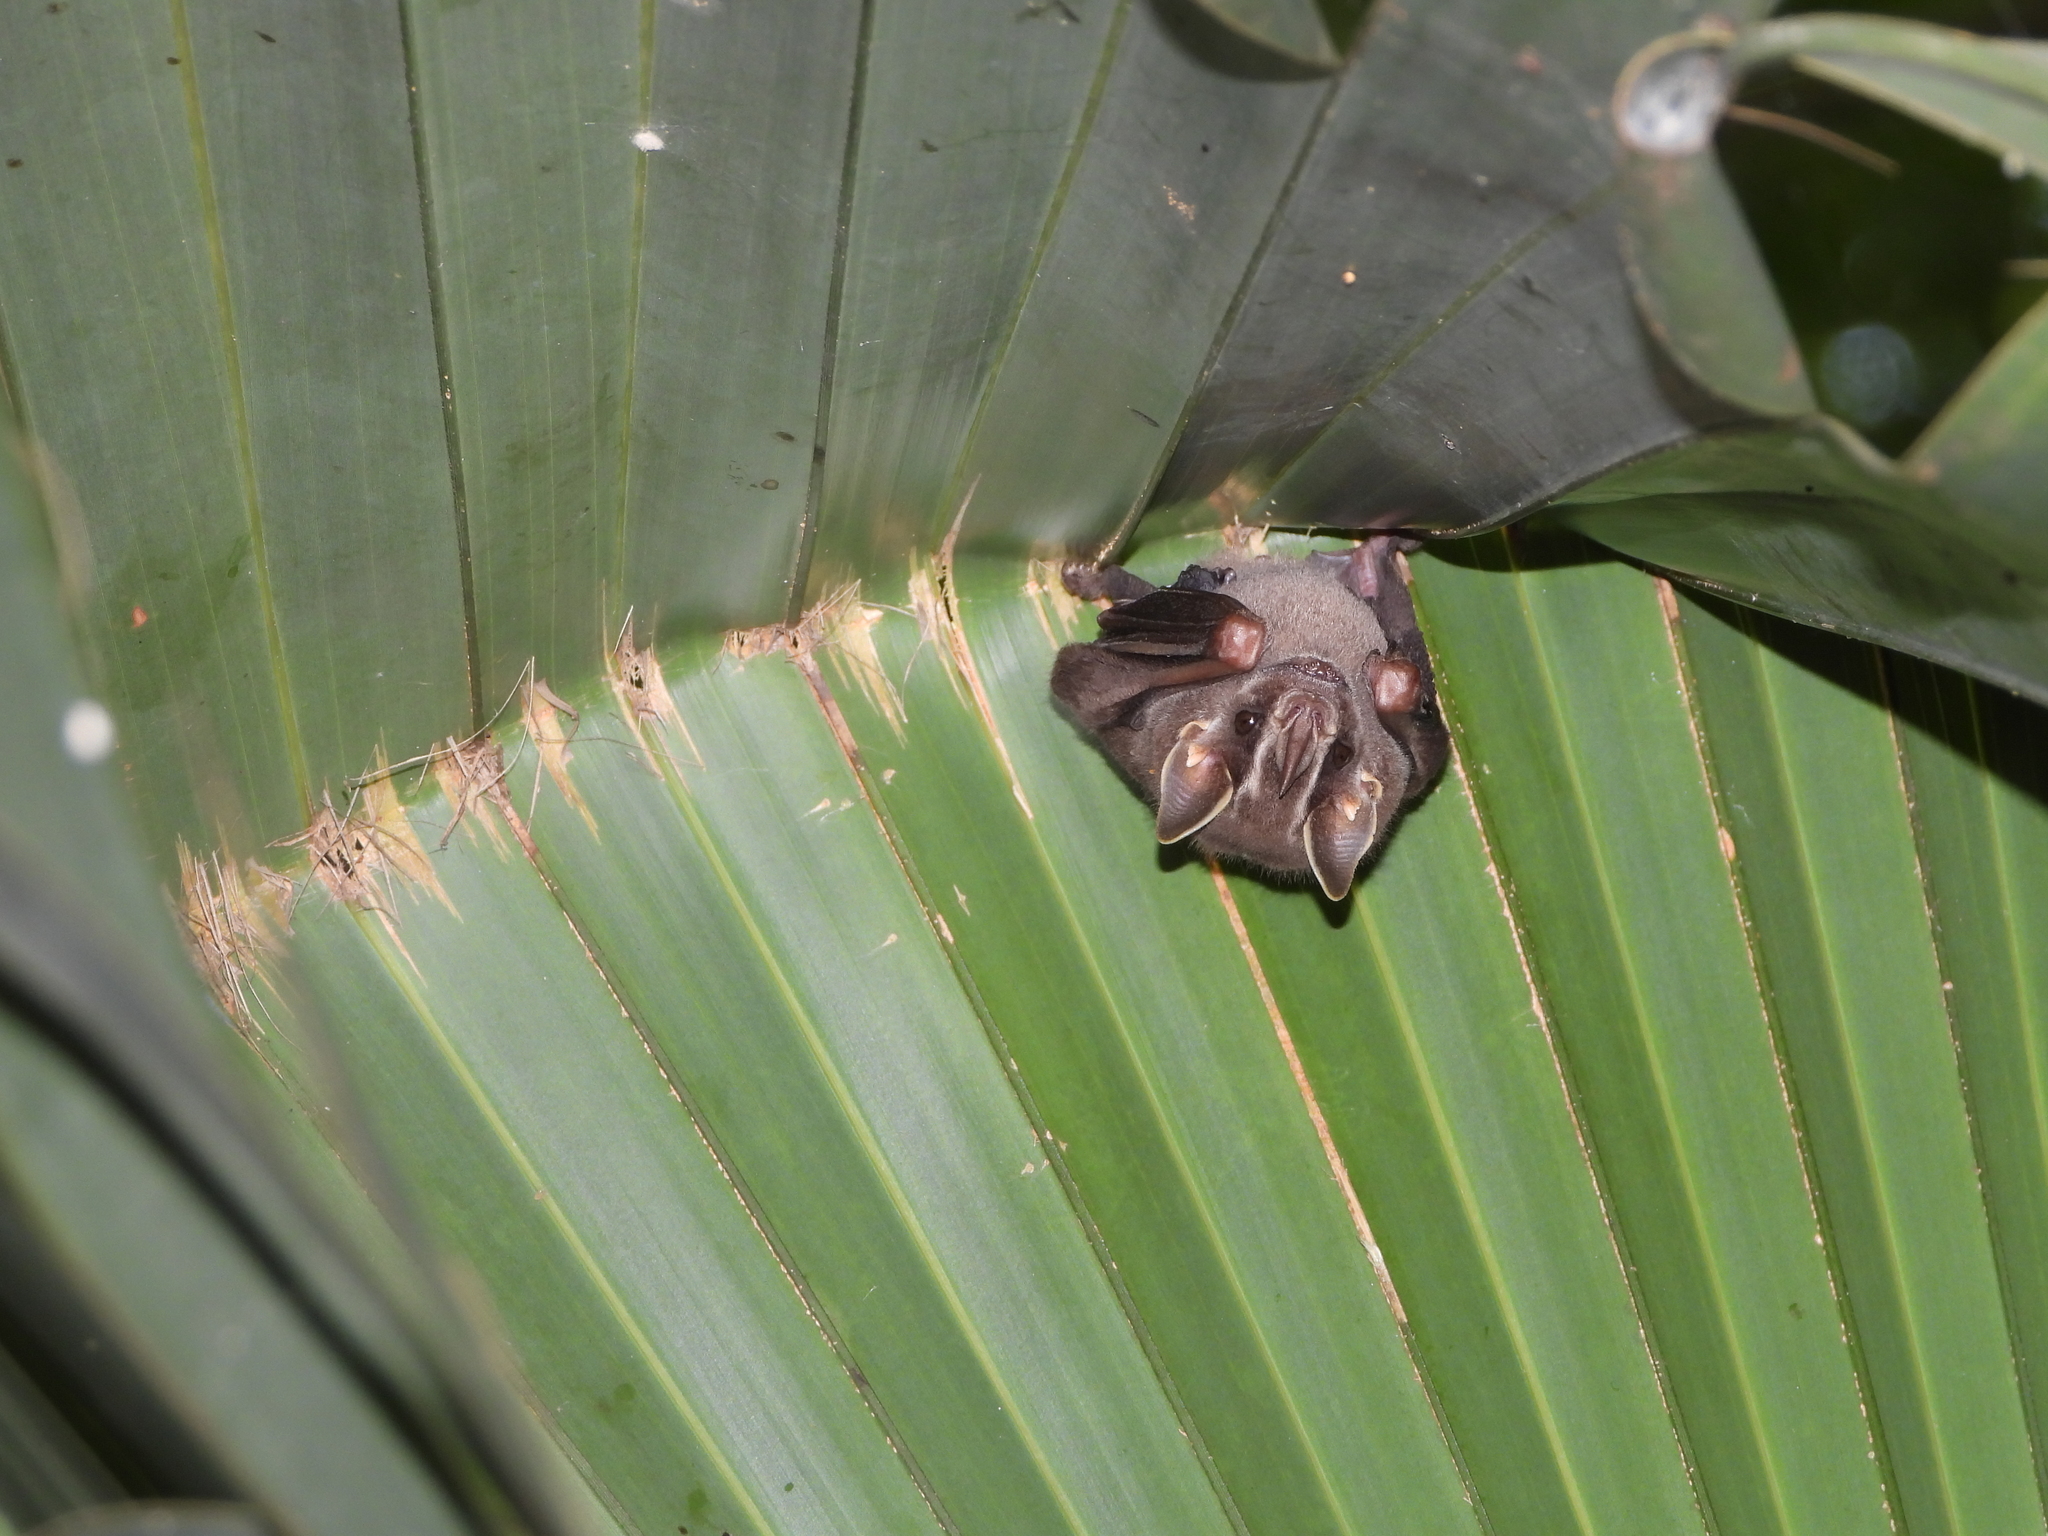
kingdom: Animalia
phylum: Chordata
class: Mammalia
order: Chiroptera
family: Phyllostomidae
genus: Uroderma
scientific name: Uroderma bilobatum
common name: Common tent-making bat
